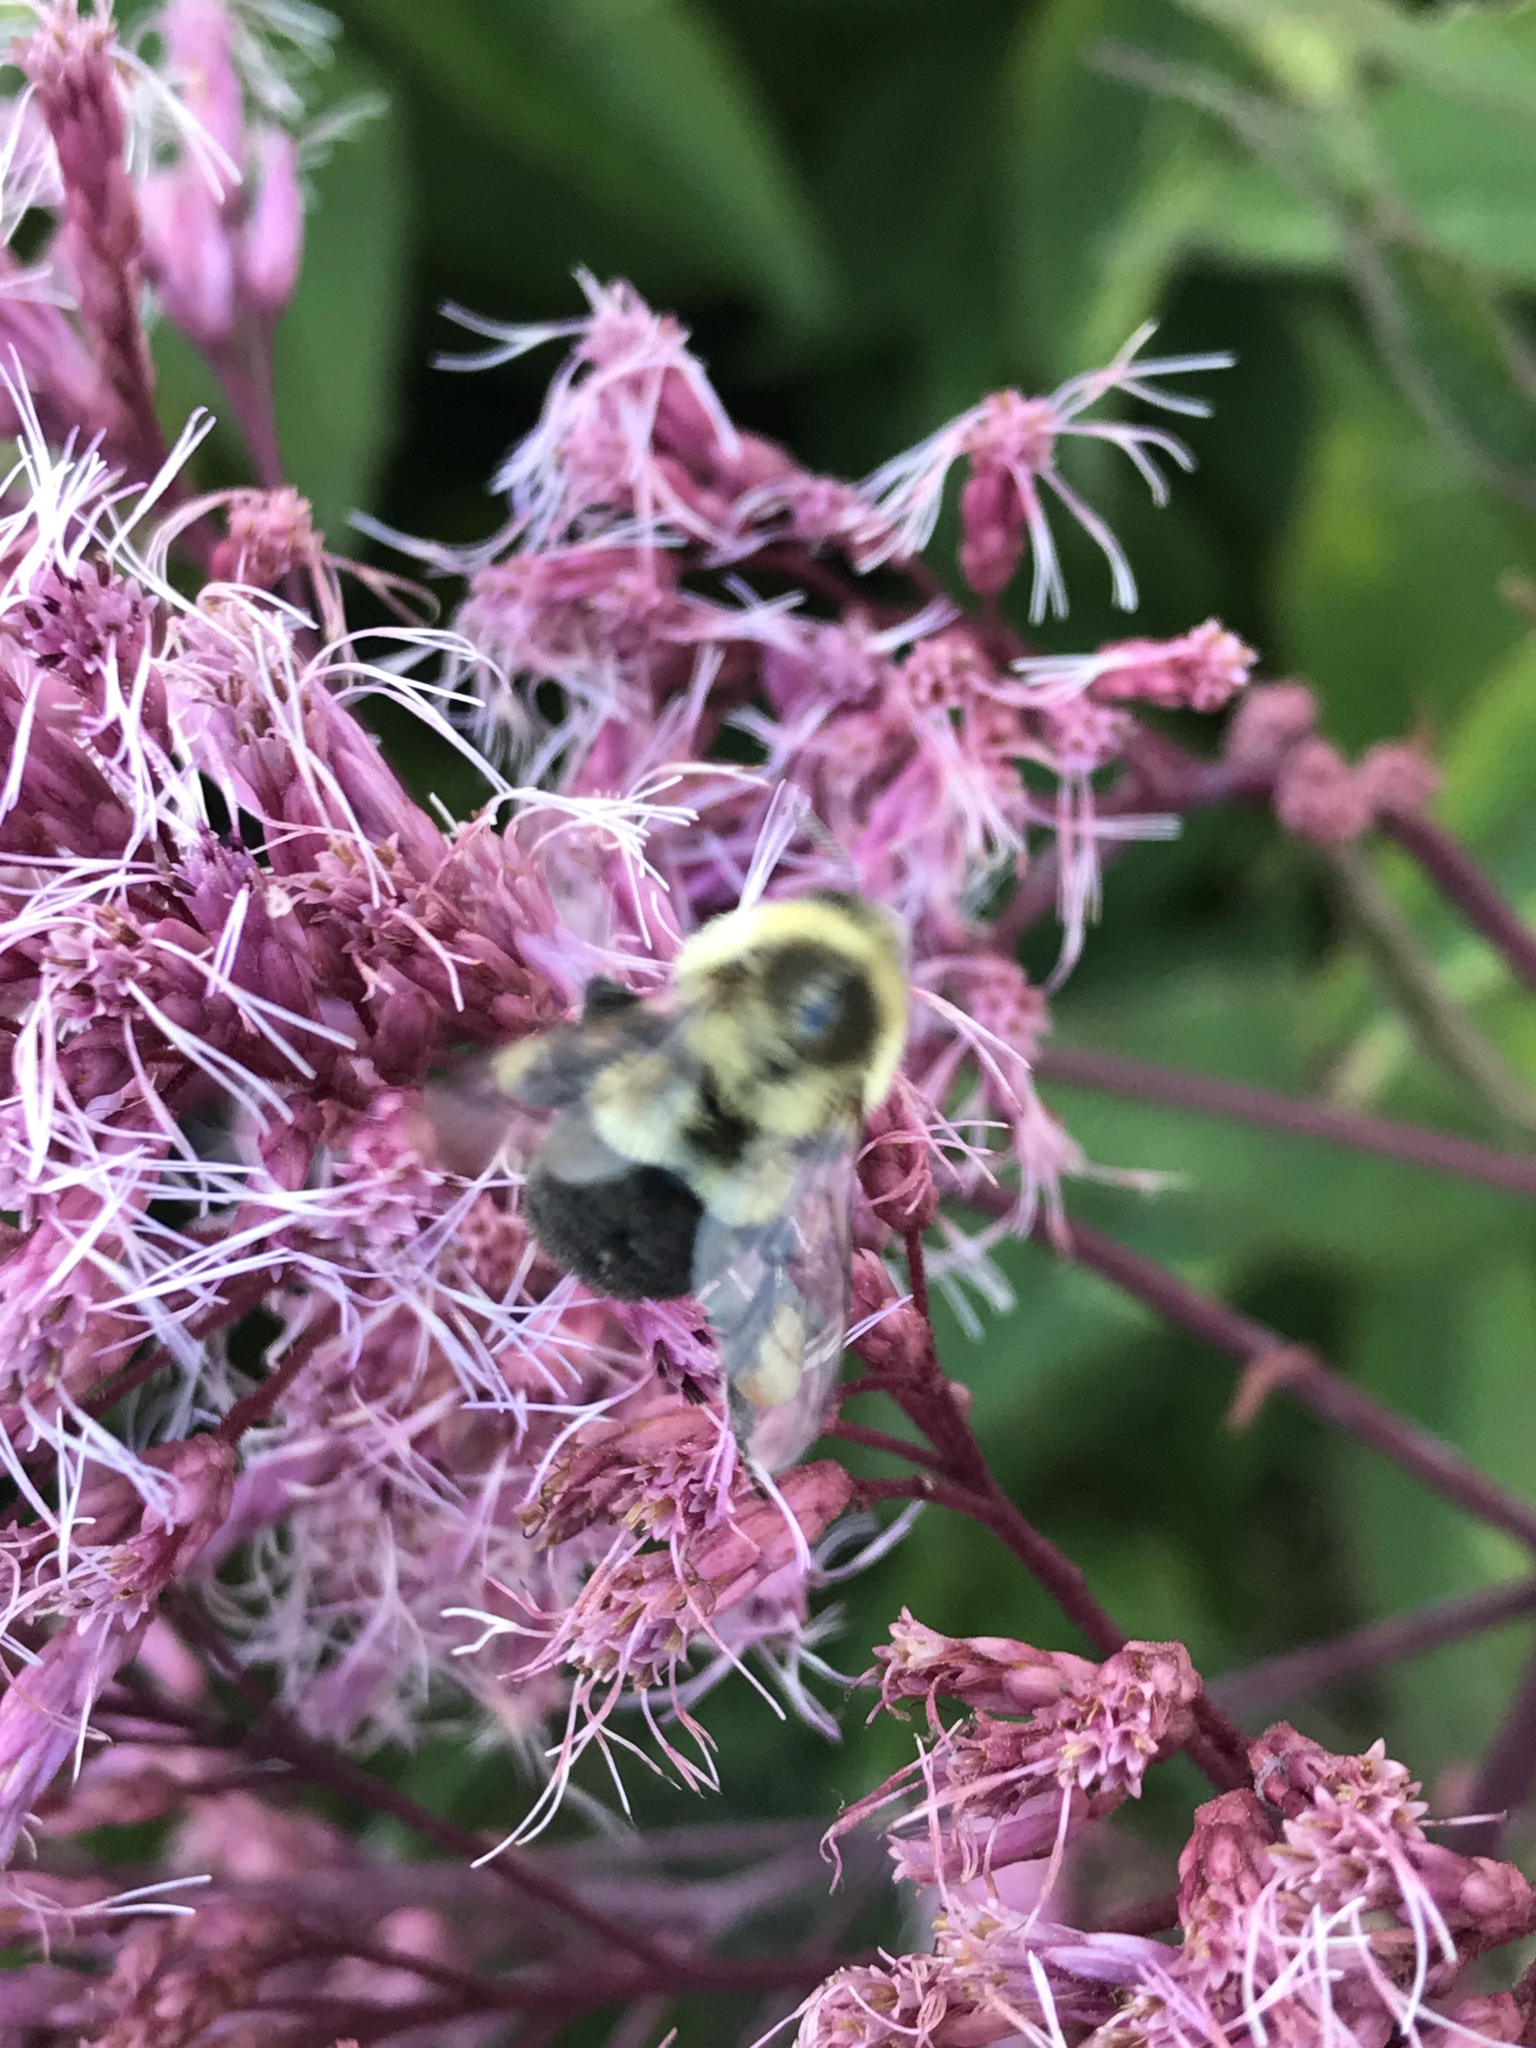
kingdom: Animalia
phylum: Arthropoda
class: Insecta
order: Hymenoptera
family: Apidae
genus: Bombus
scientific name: Bombus impatiens
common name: Common eastern bumble bee
